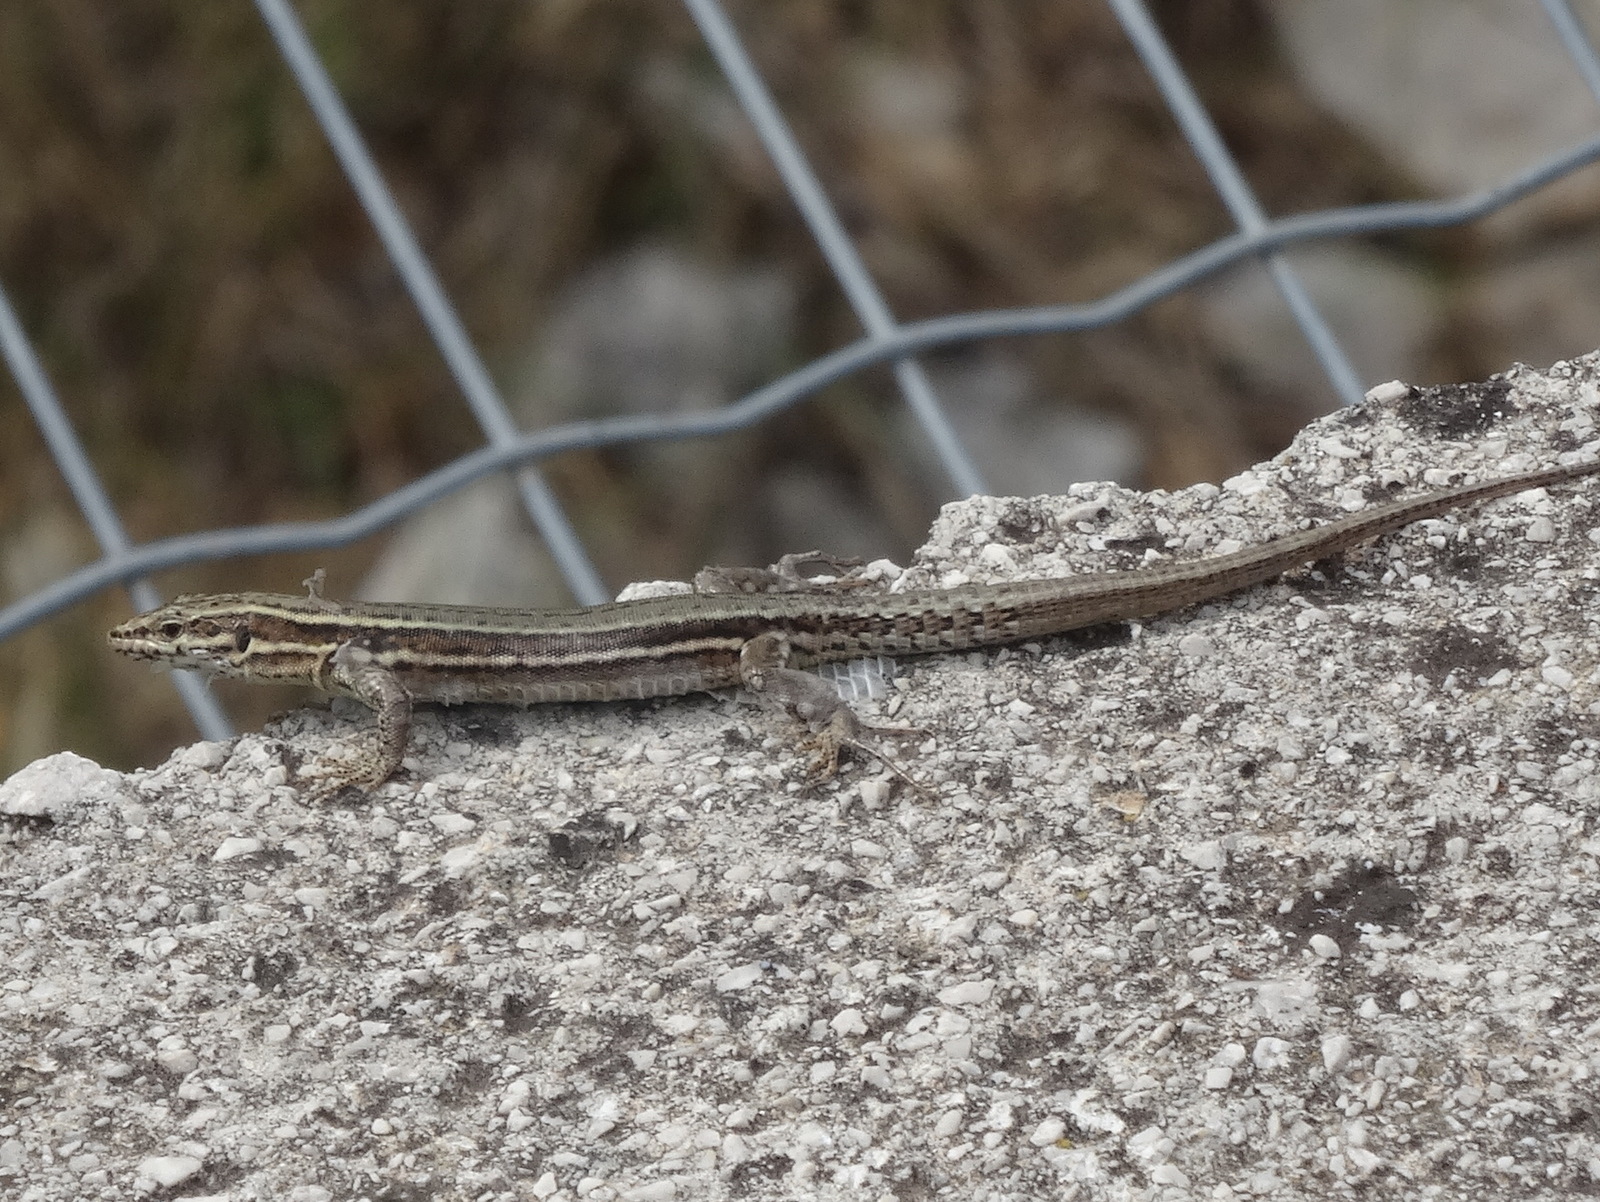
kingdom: Animalia
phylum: Chordata
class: Squamata
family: Lacertidae
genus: Podarcis
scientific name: Podarcis muralis
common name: Common wall lizard
